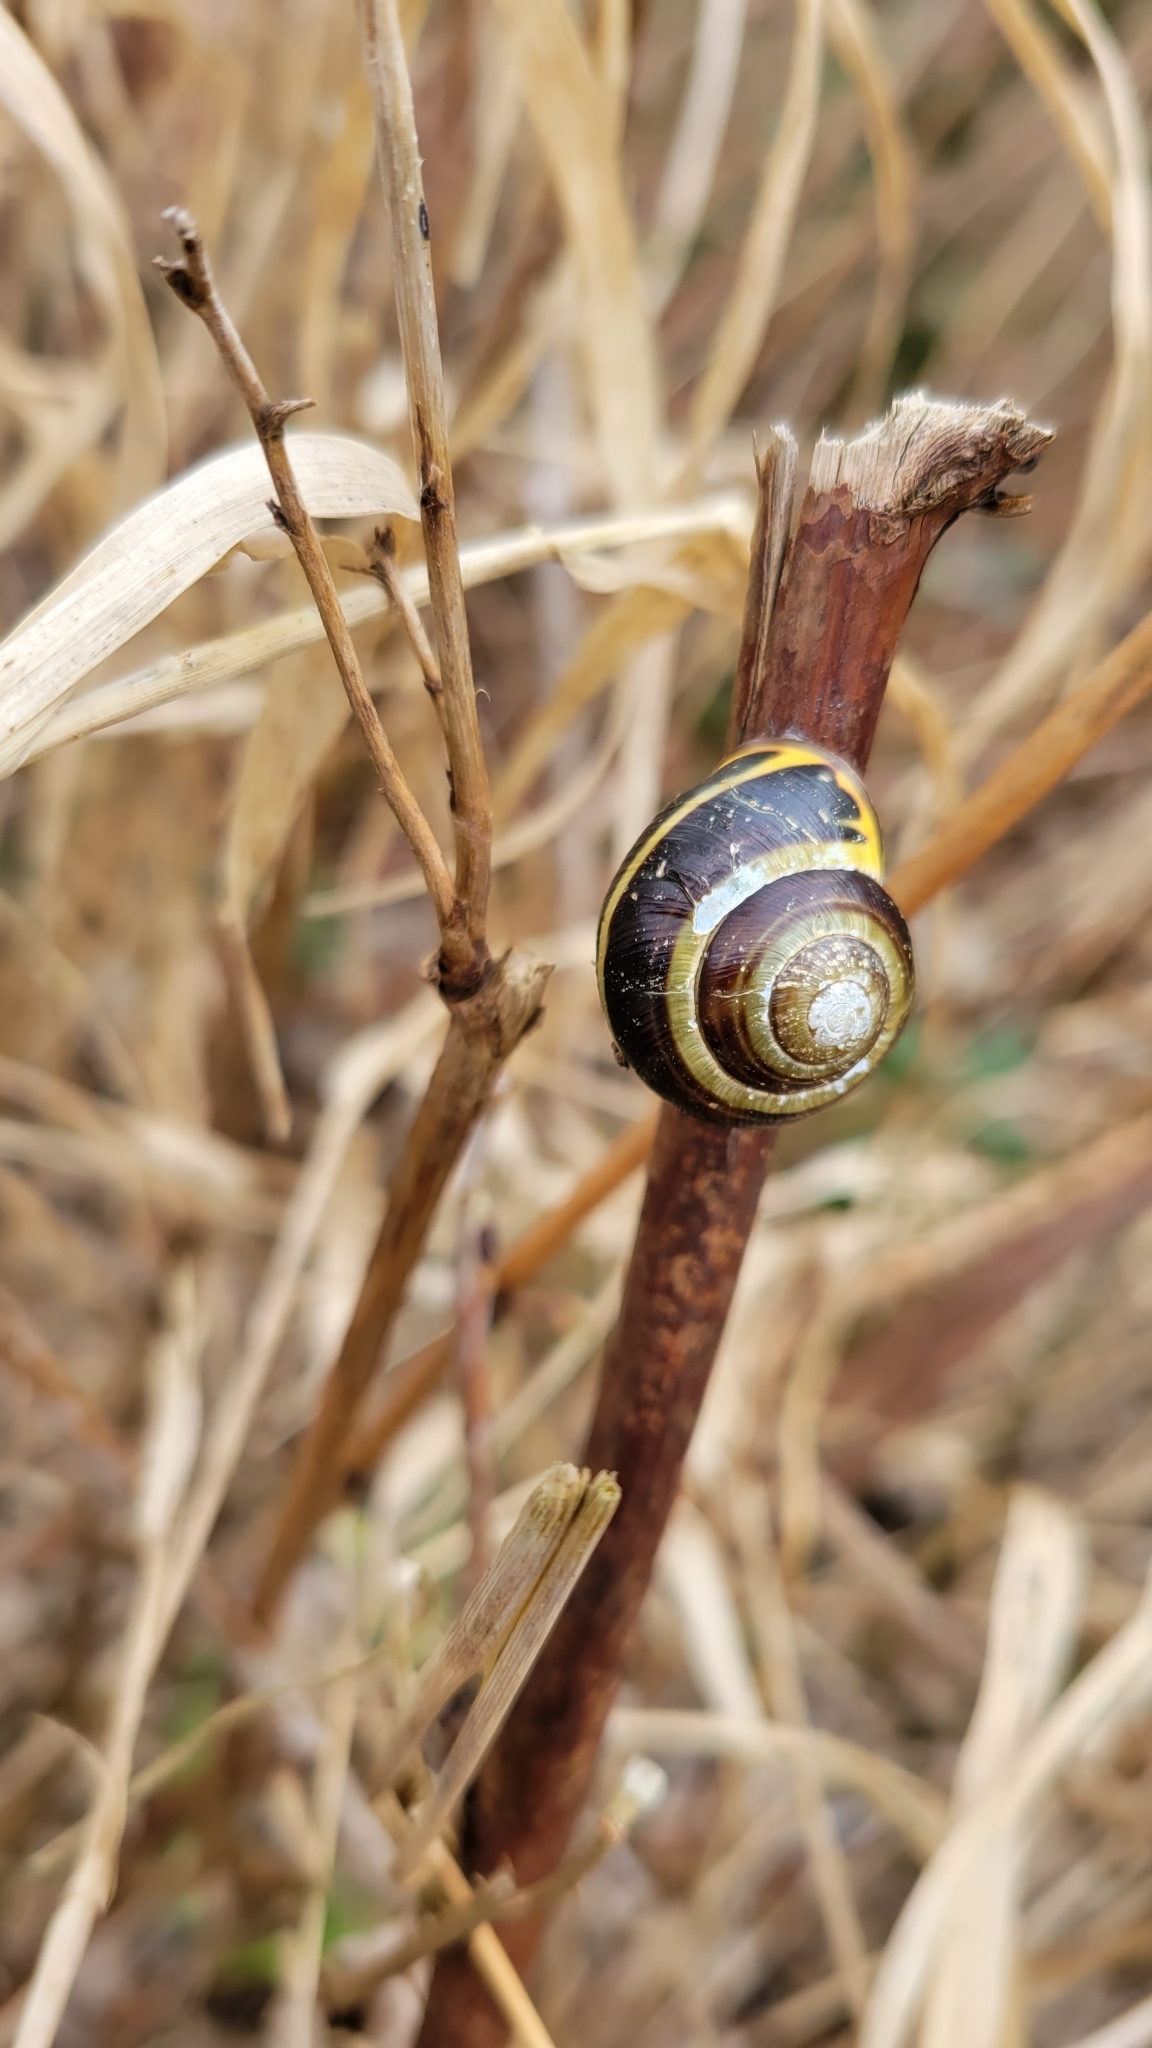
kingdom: Animalia
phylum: Mollusca
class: Gastropoda
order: Stylommatophora
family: Helicidae
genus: Cepaea
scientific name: Cepaea nemoralis
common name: Grovesnail
